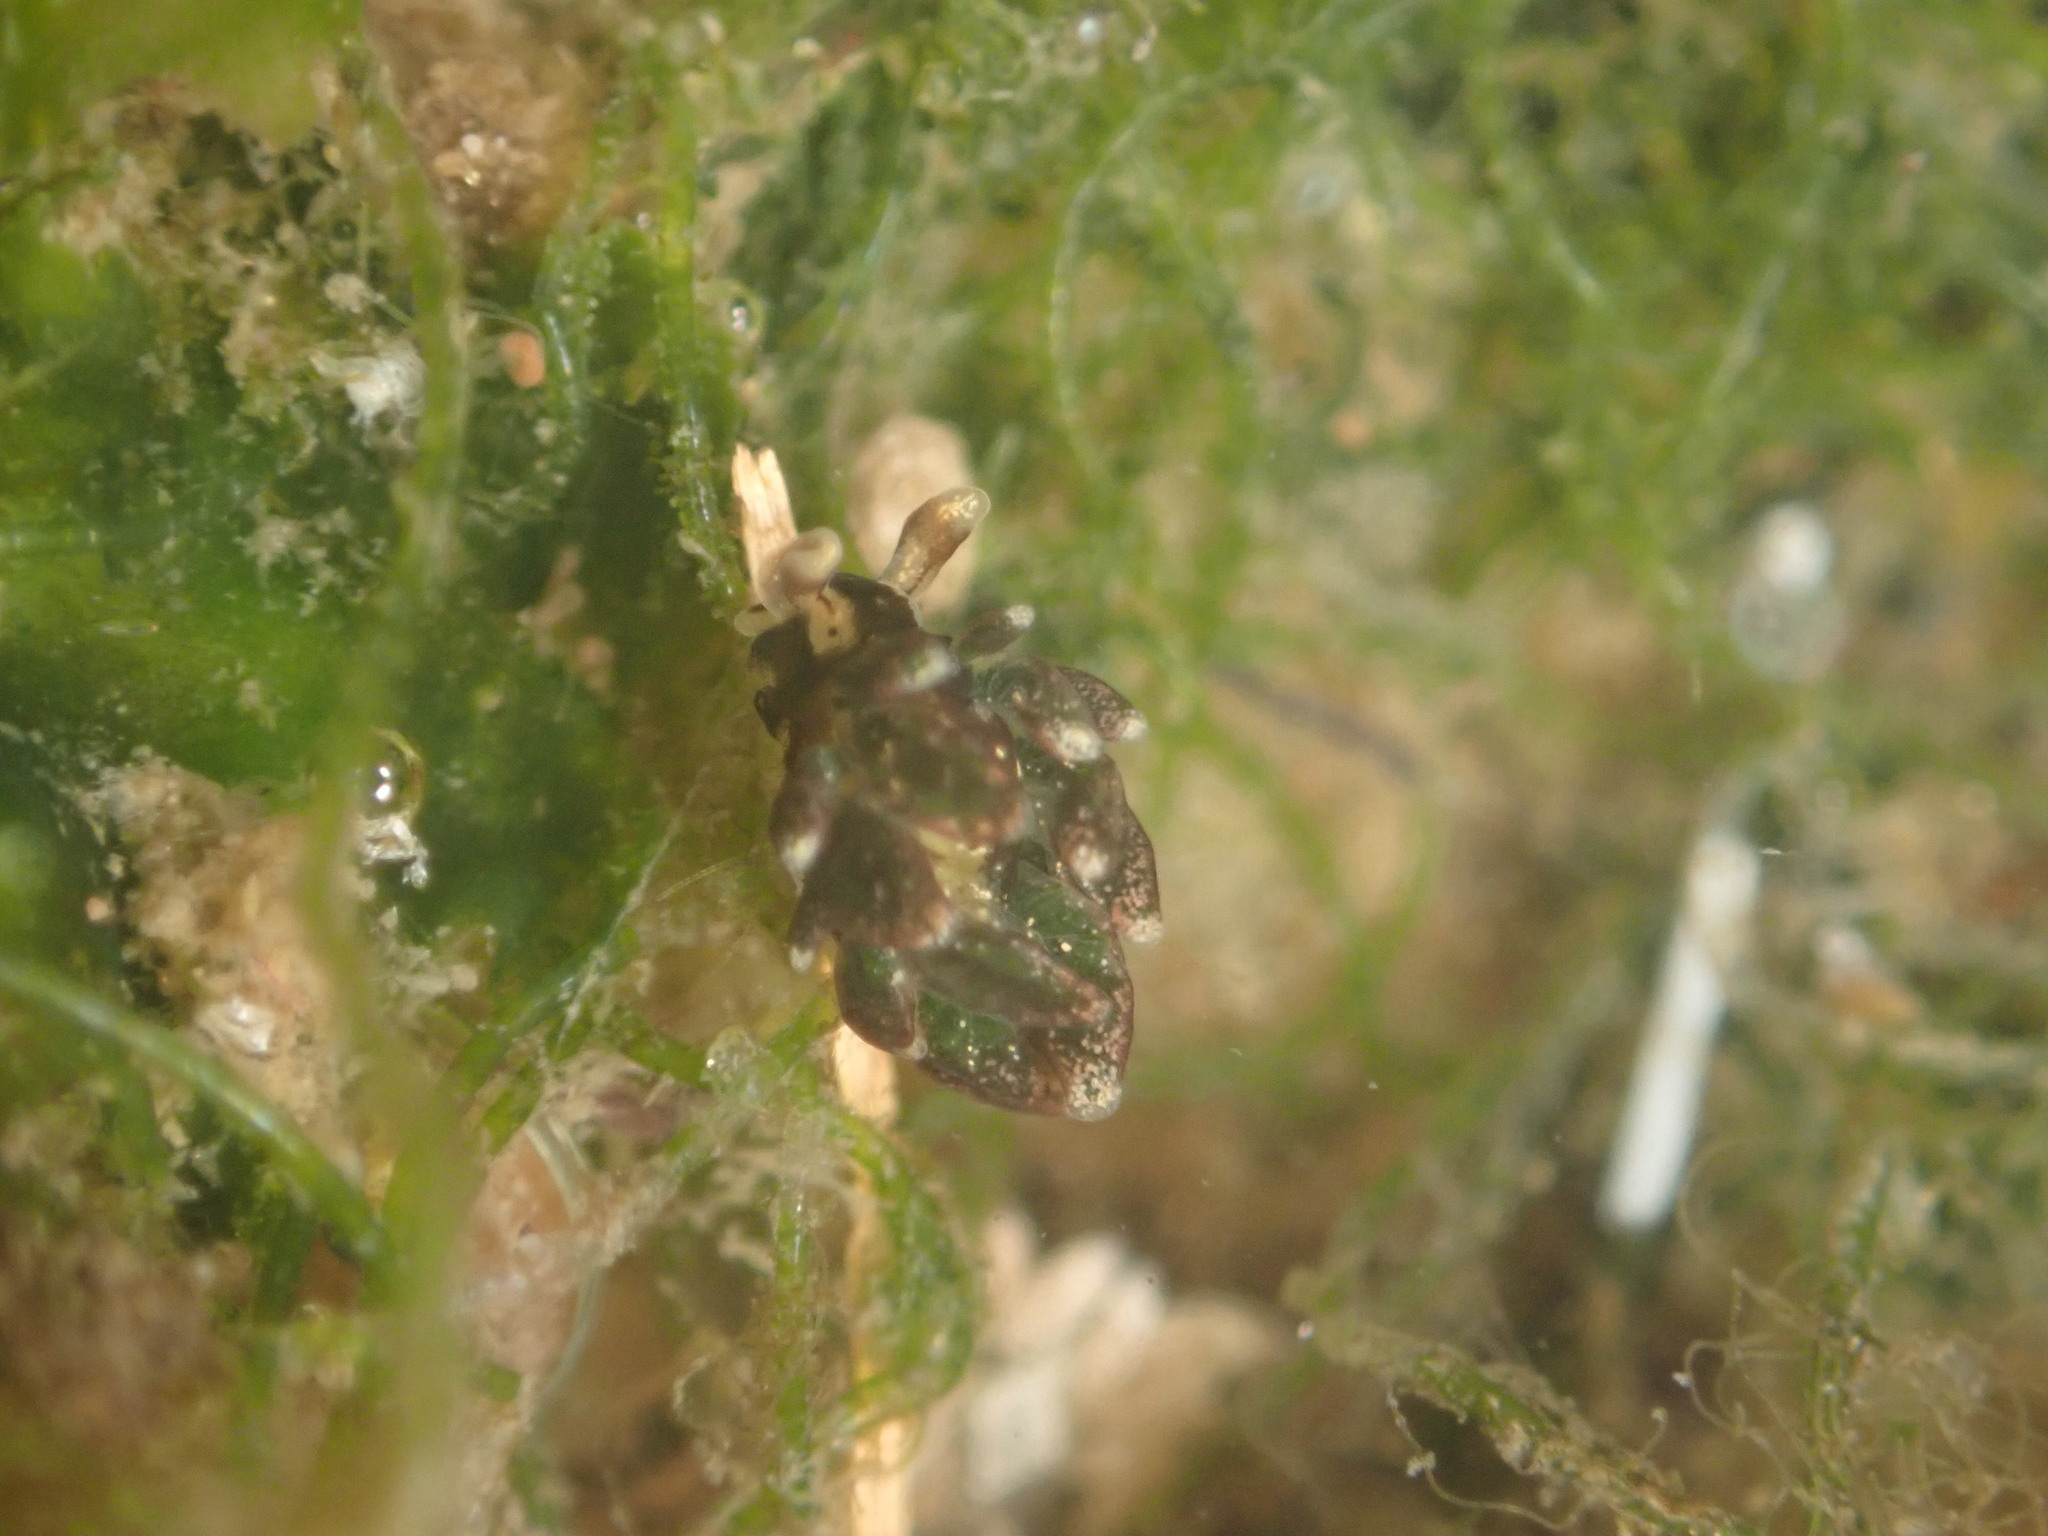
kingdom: Animalia
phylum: Mollusca
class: Gastropoda
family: Hermaeidae
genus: Aplysiopsis
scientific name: Aplysiopsis enteromorphae
